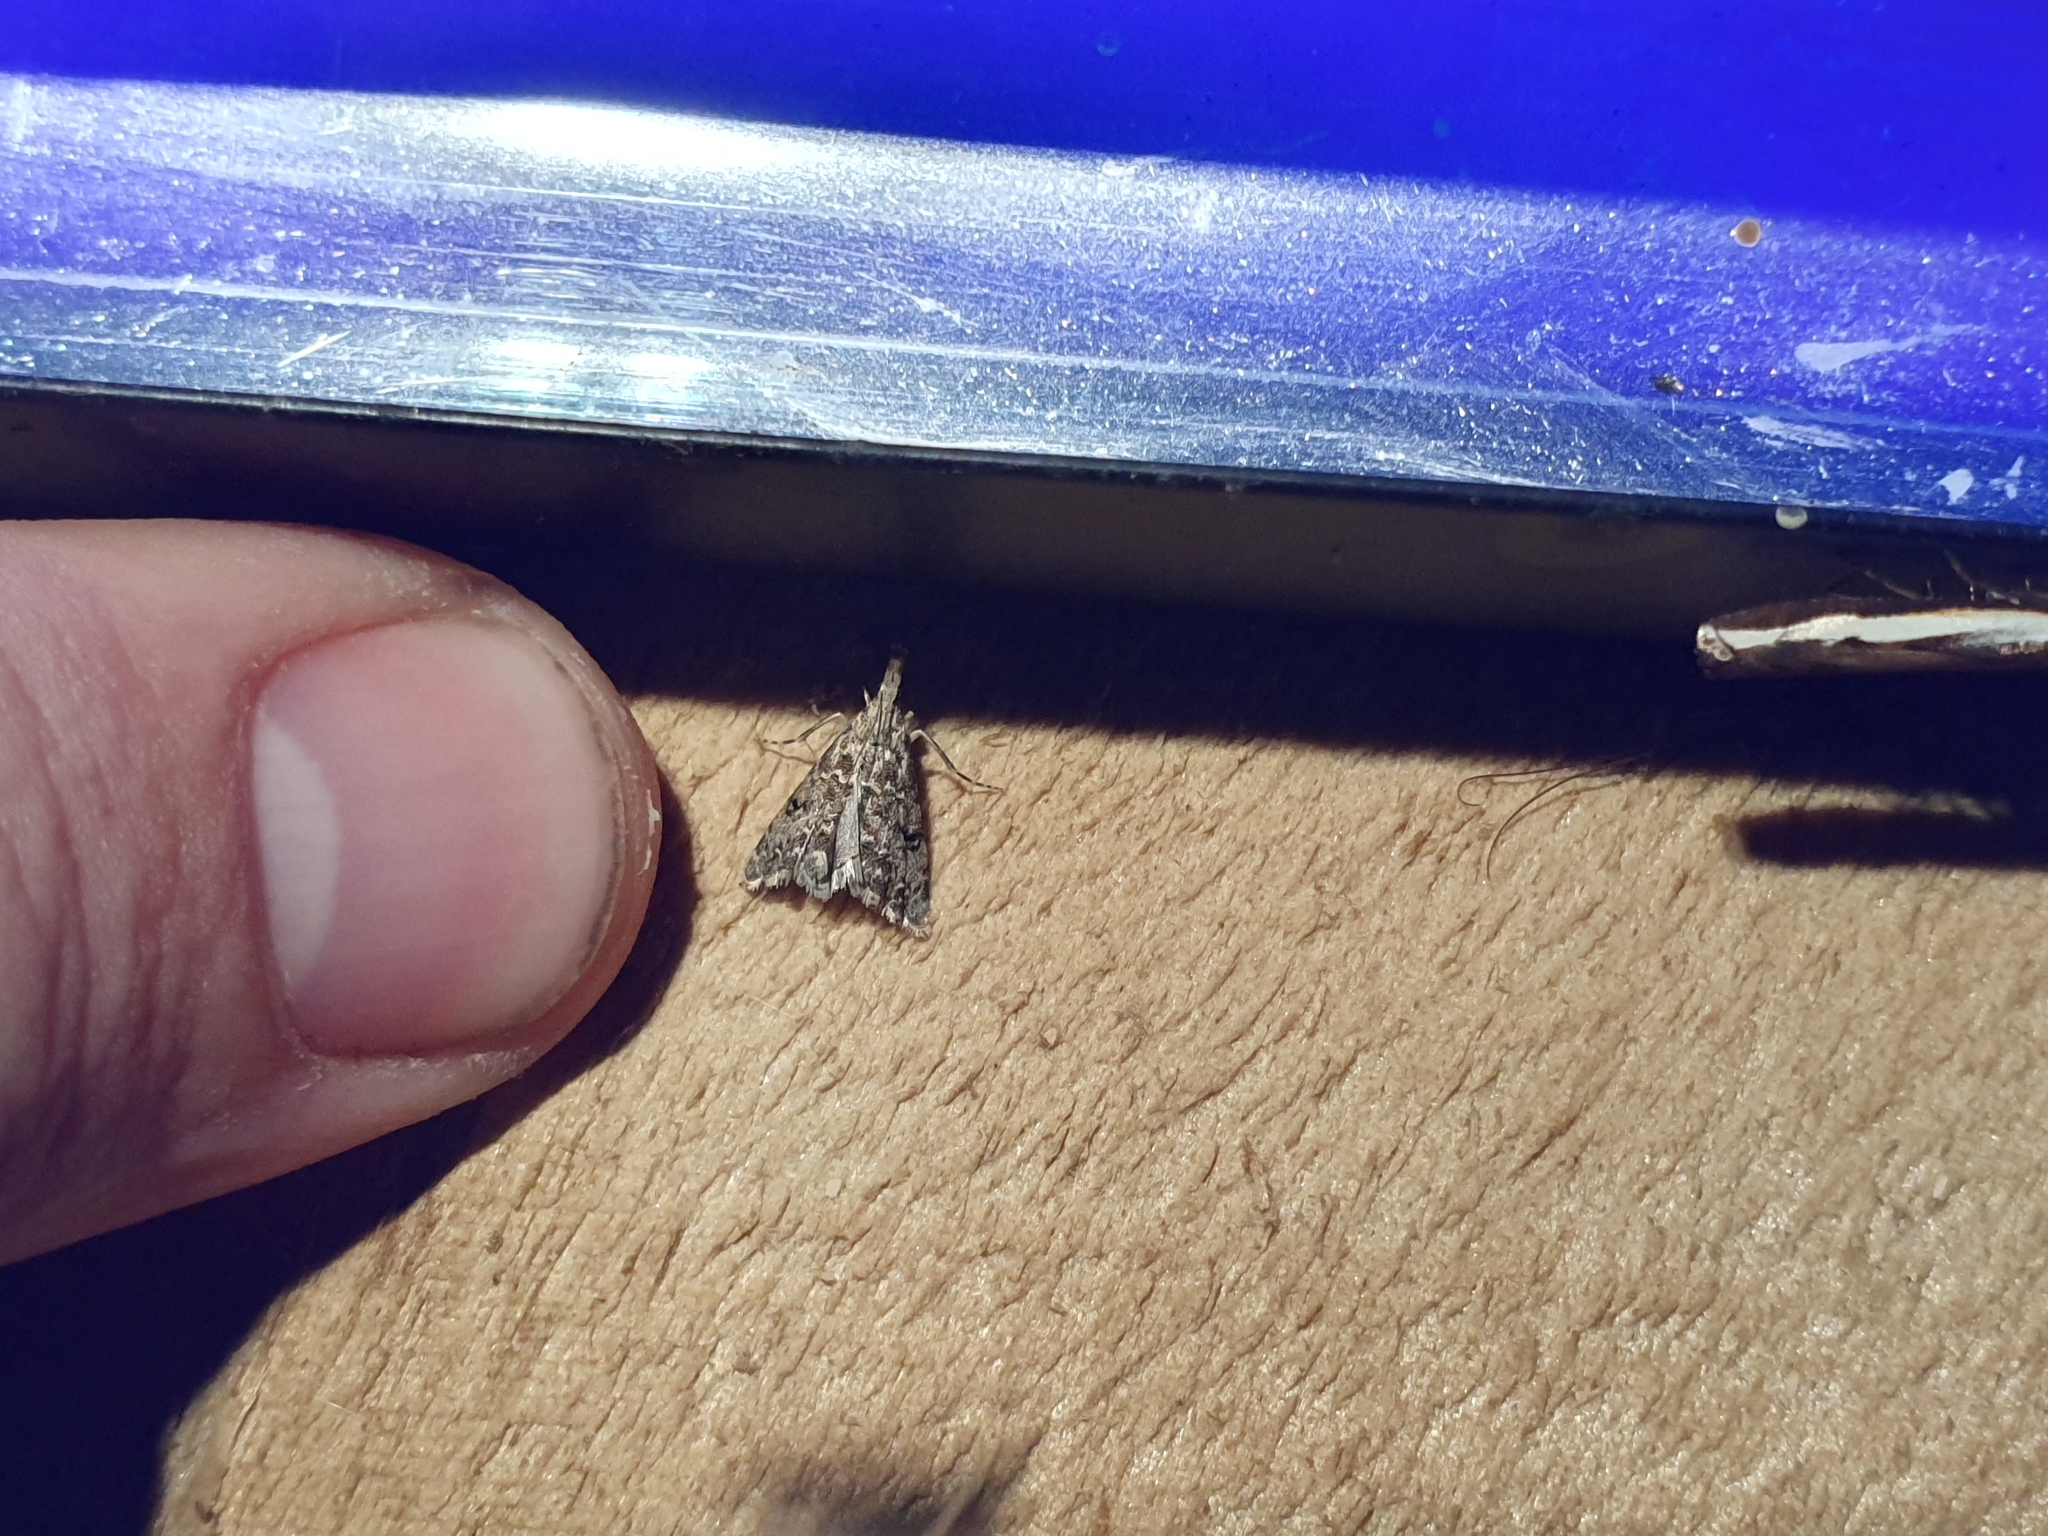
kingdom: Animalia
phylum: Arthropoda
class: Insecta
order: Lepidoptera
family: Crambidae
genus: Glaucocharis
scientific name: Glaucocharis elaina
